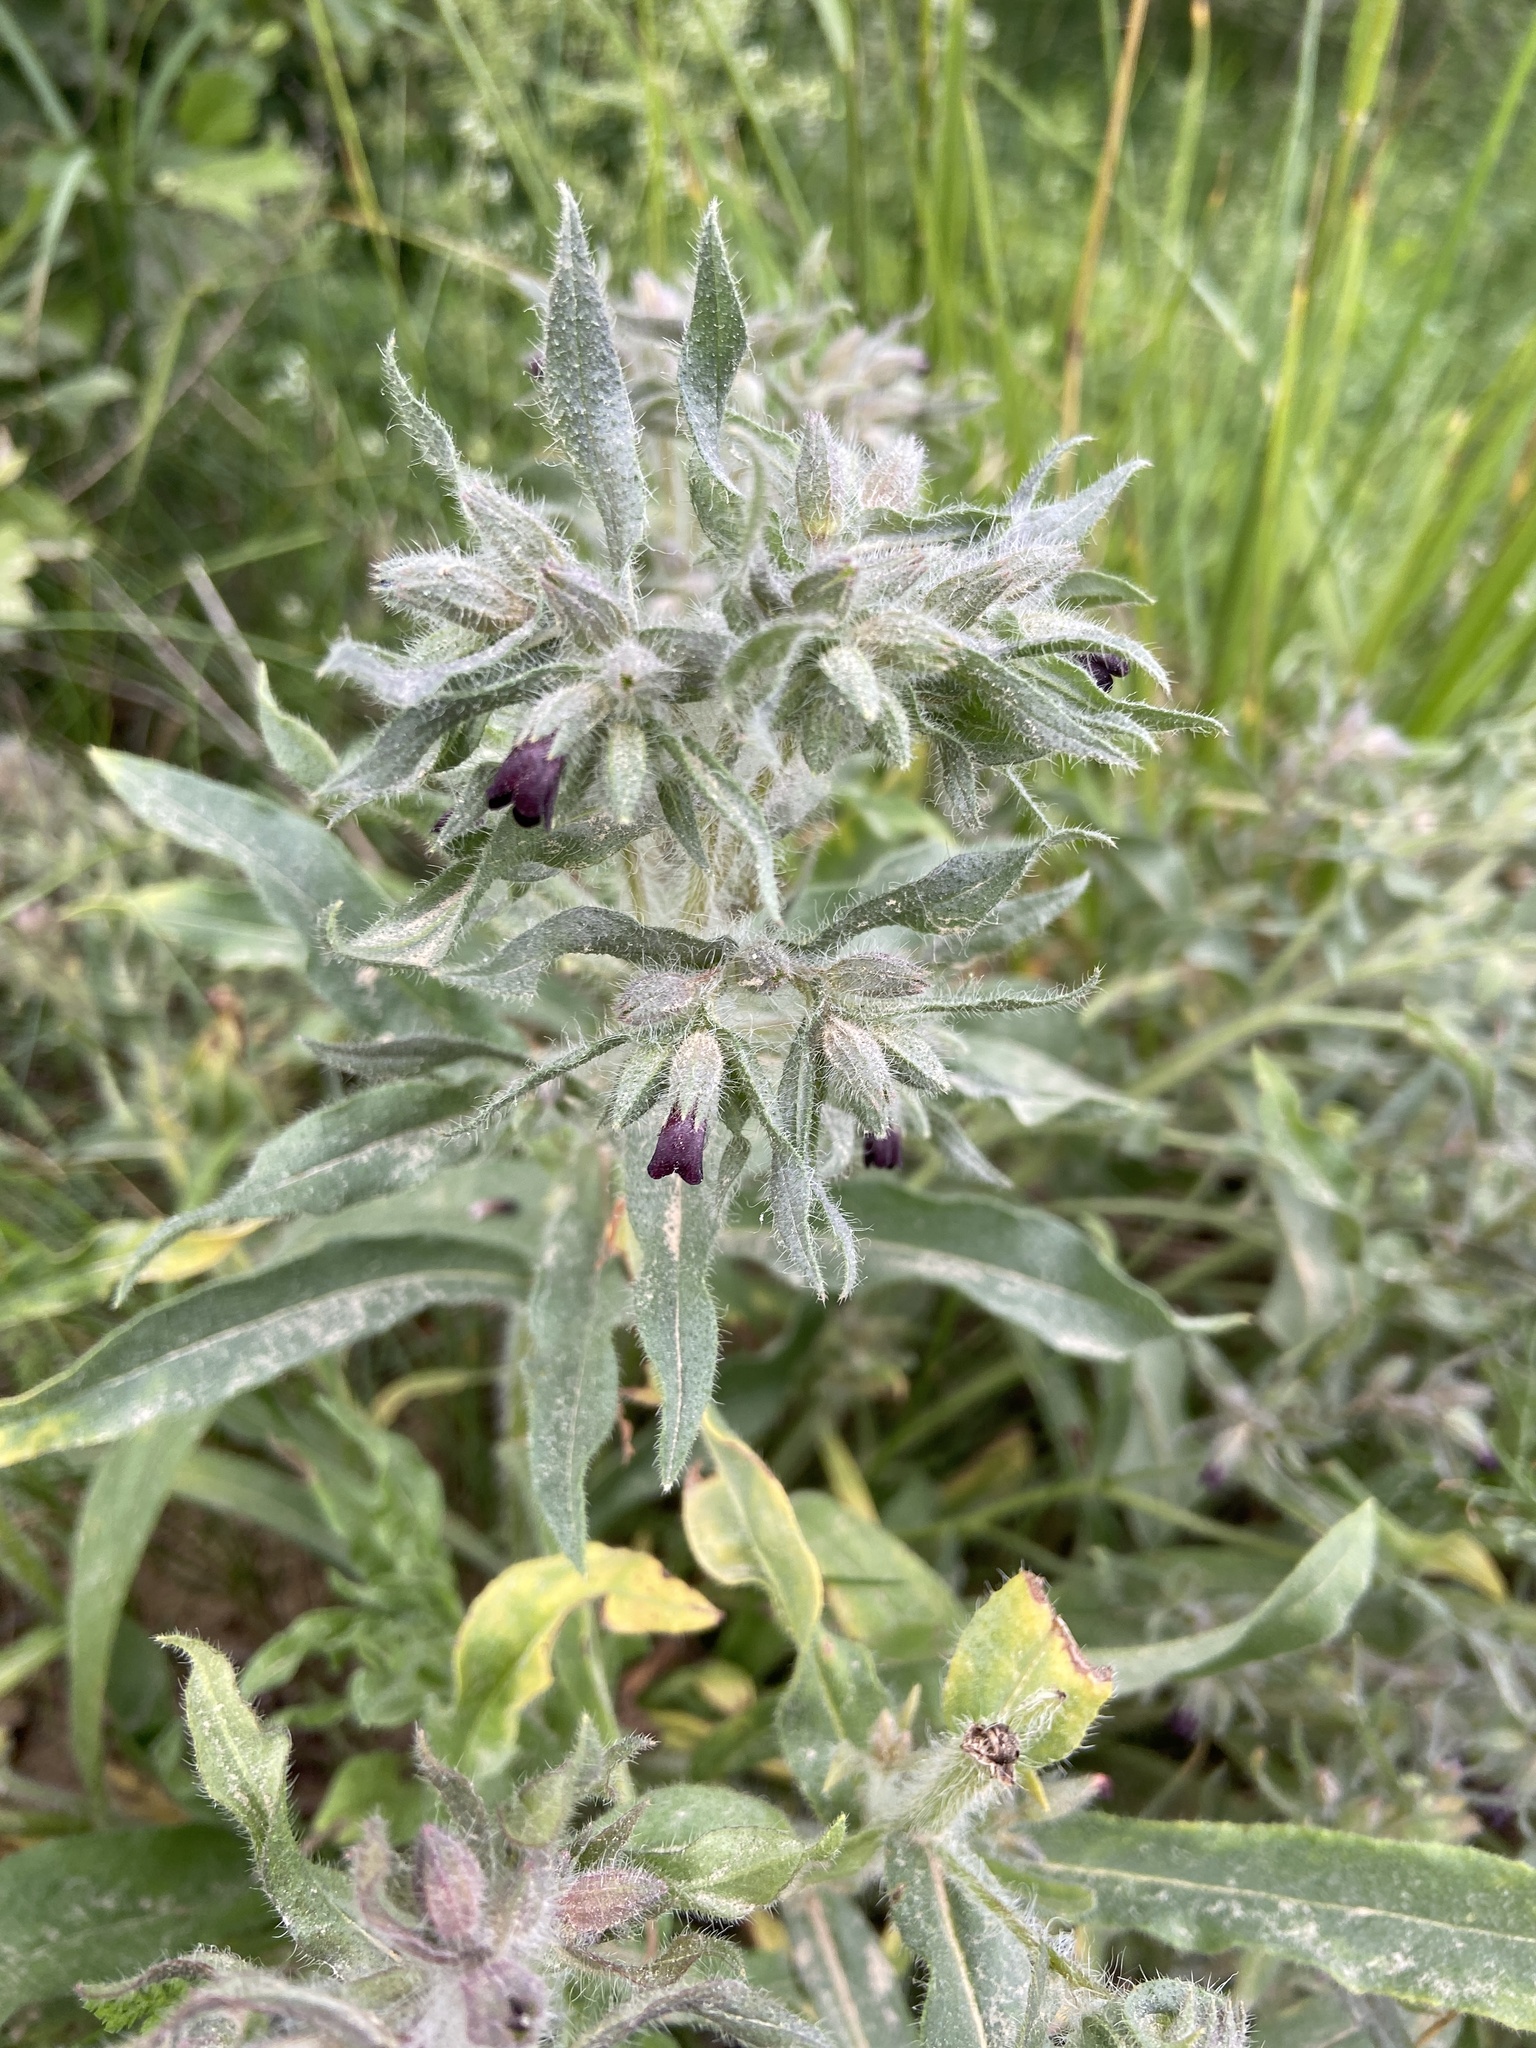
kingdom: Plantae
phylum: Tracheophyta
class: Magnoliopsida
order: Boraginales
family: Boraginaceae
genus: Nonea
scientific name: Nonea pulla
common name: Brown nonea
